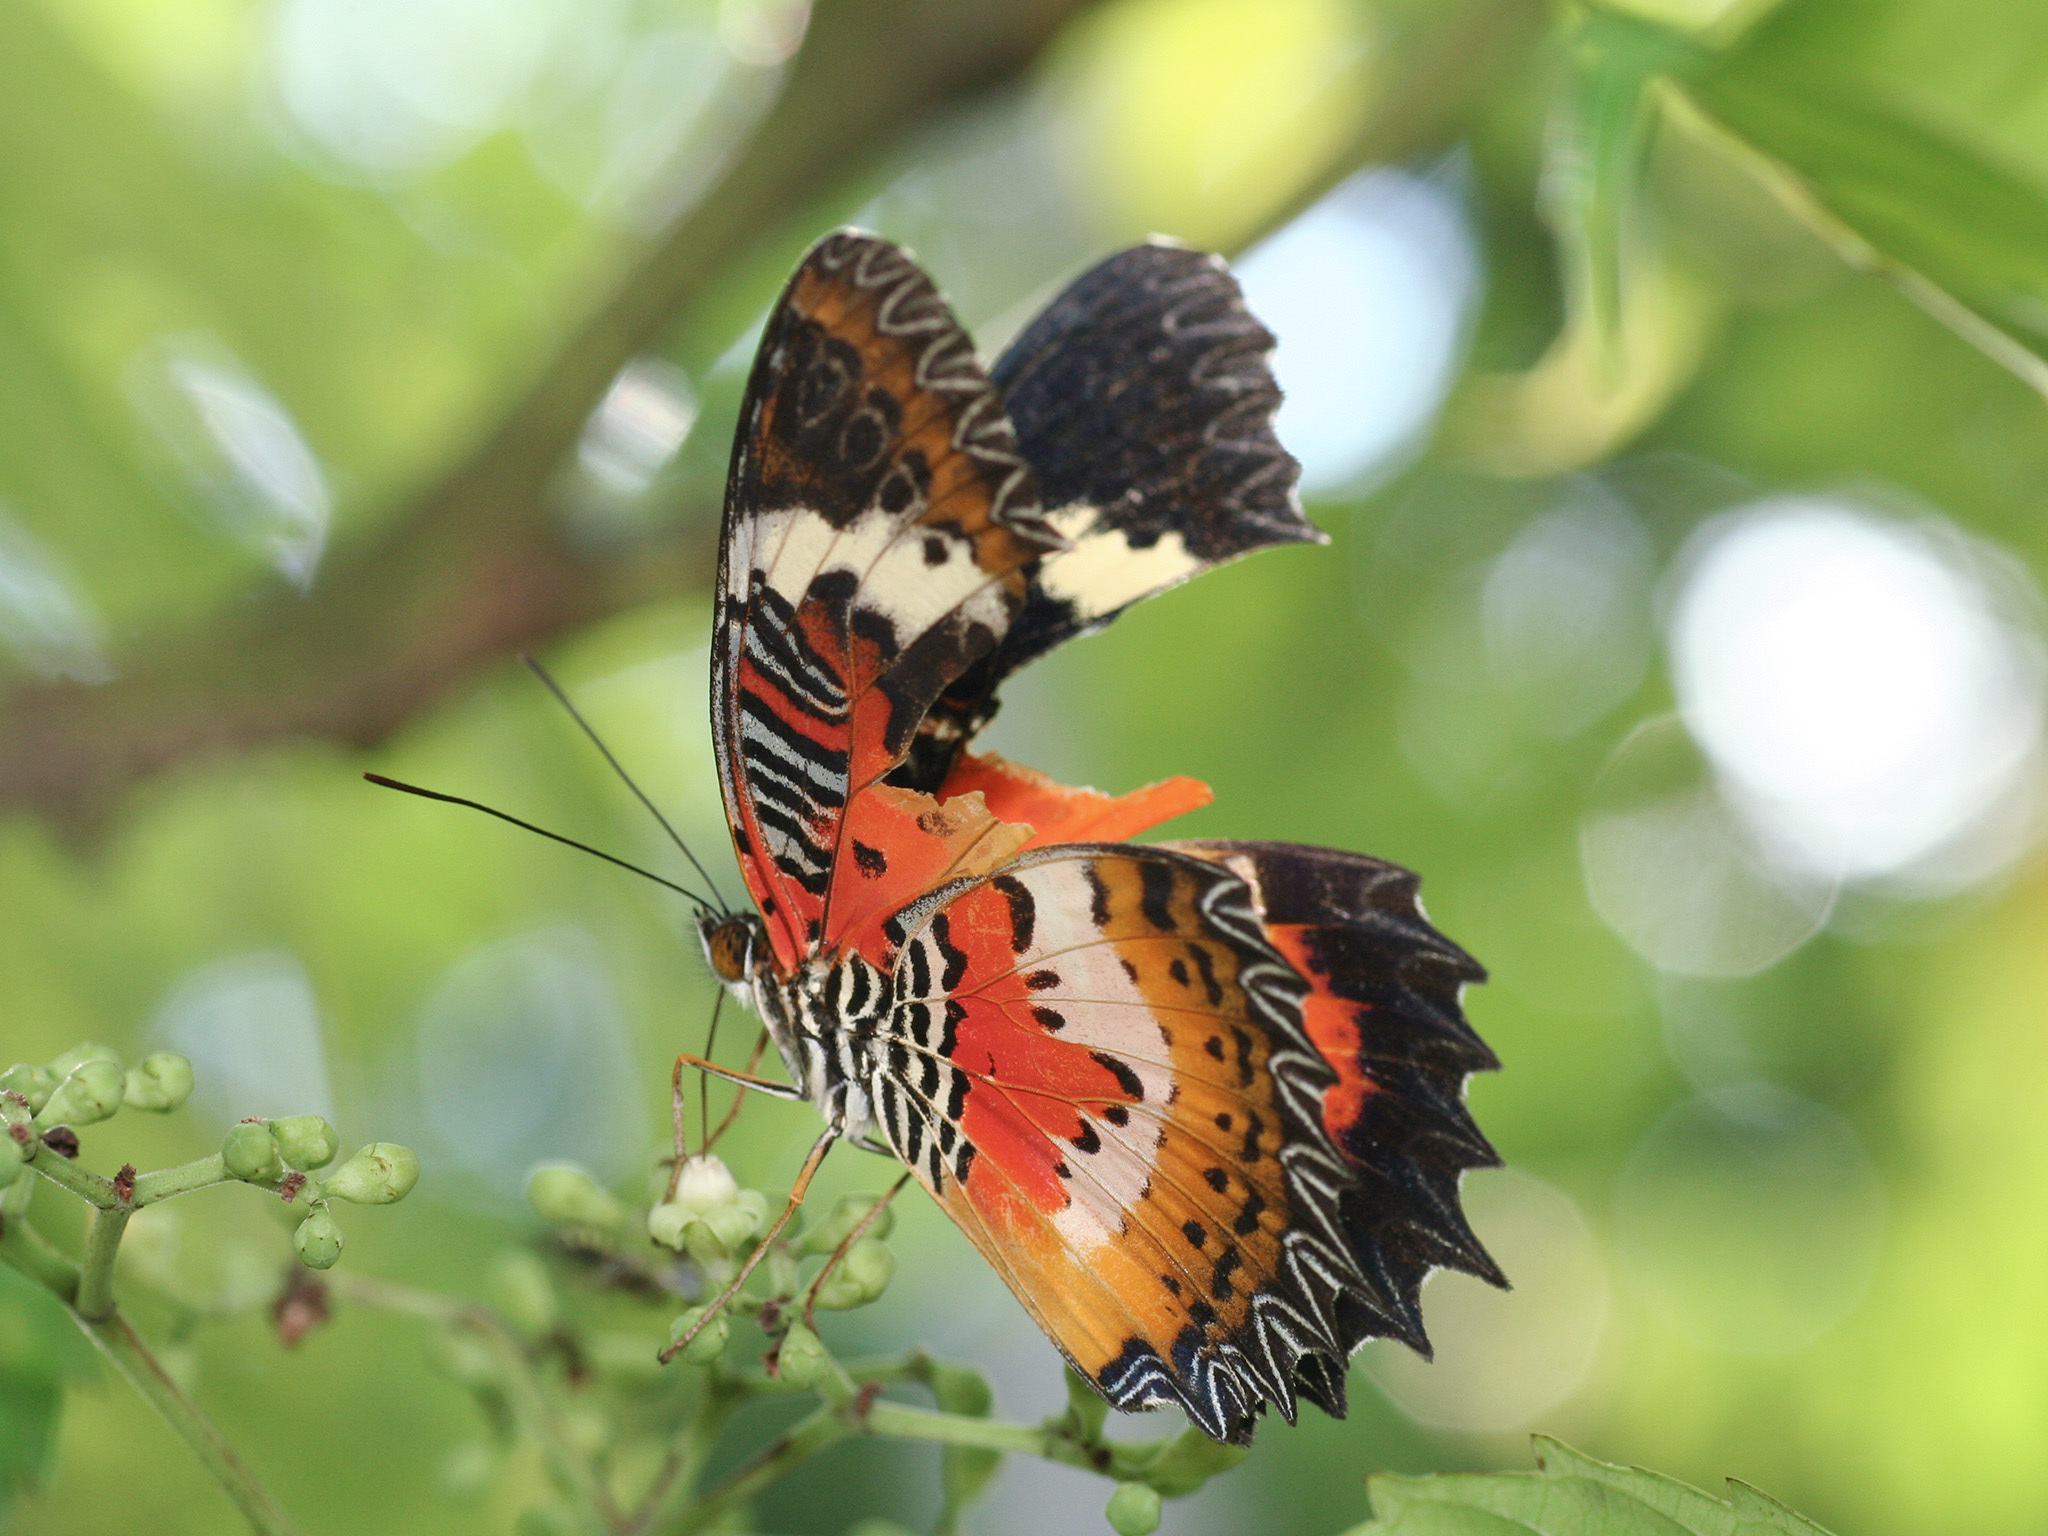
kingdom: Animalia
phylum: Arthropoda
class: Insecta
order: Lepidoptera
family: Nymphalidae
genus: Cethosia
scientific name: Cethosia hypsea
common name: Malayan lacewing butterfly
